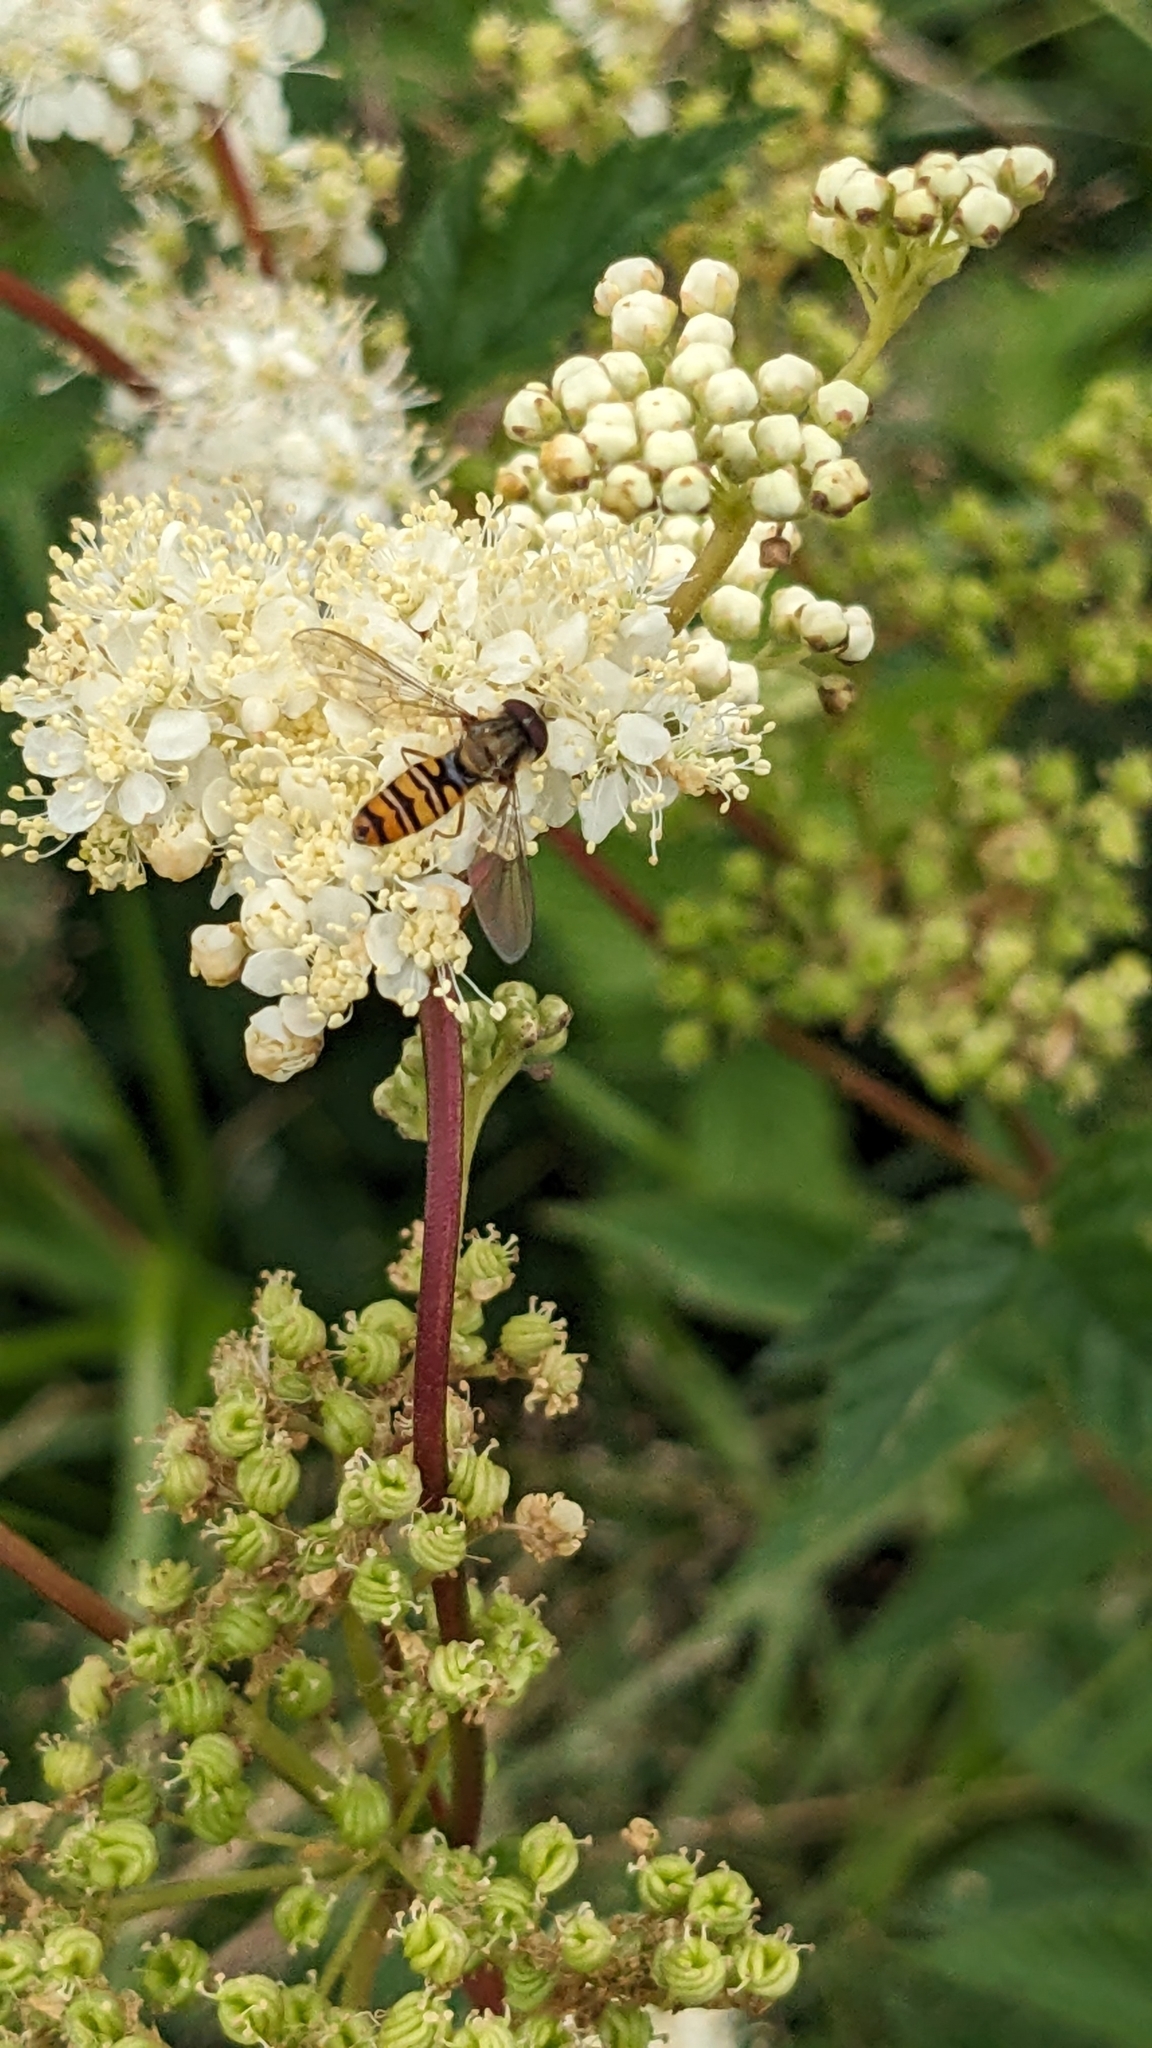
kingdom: Animalia
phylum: Arthropoda
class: Insecta
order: Diptera
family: Syrphidae
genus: Episyrphus
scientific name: Episyrphus balteatus
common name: Marmalade hoverfly
